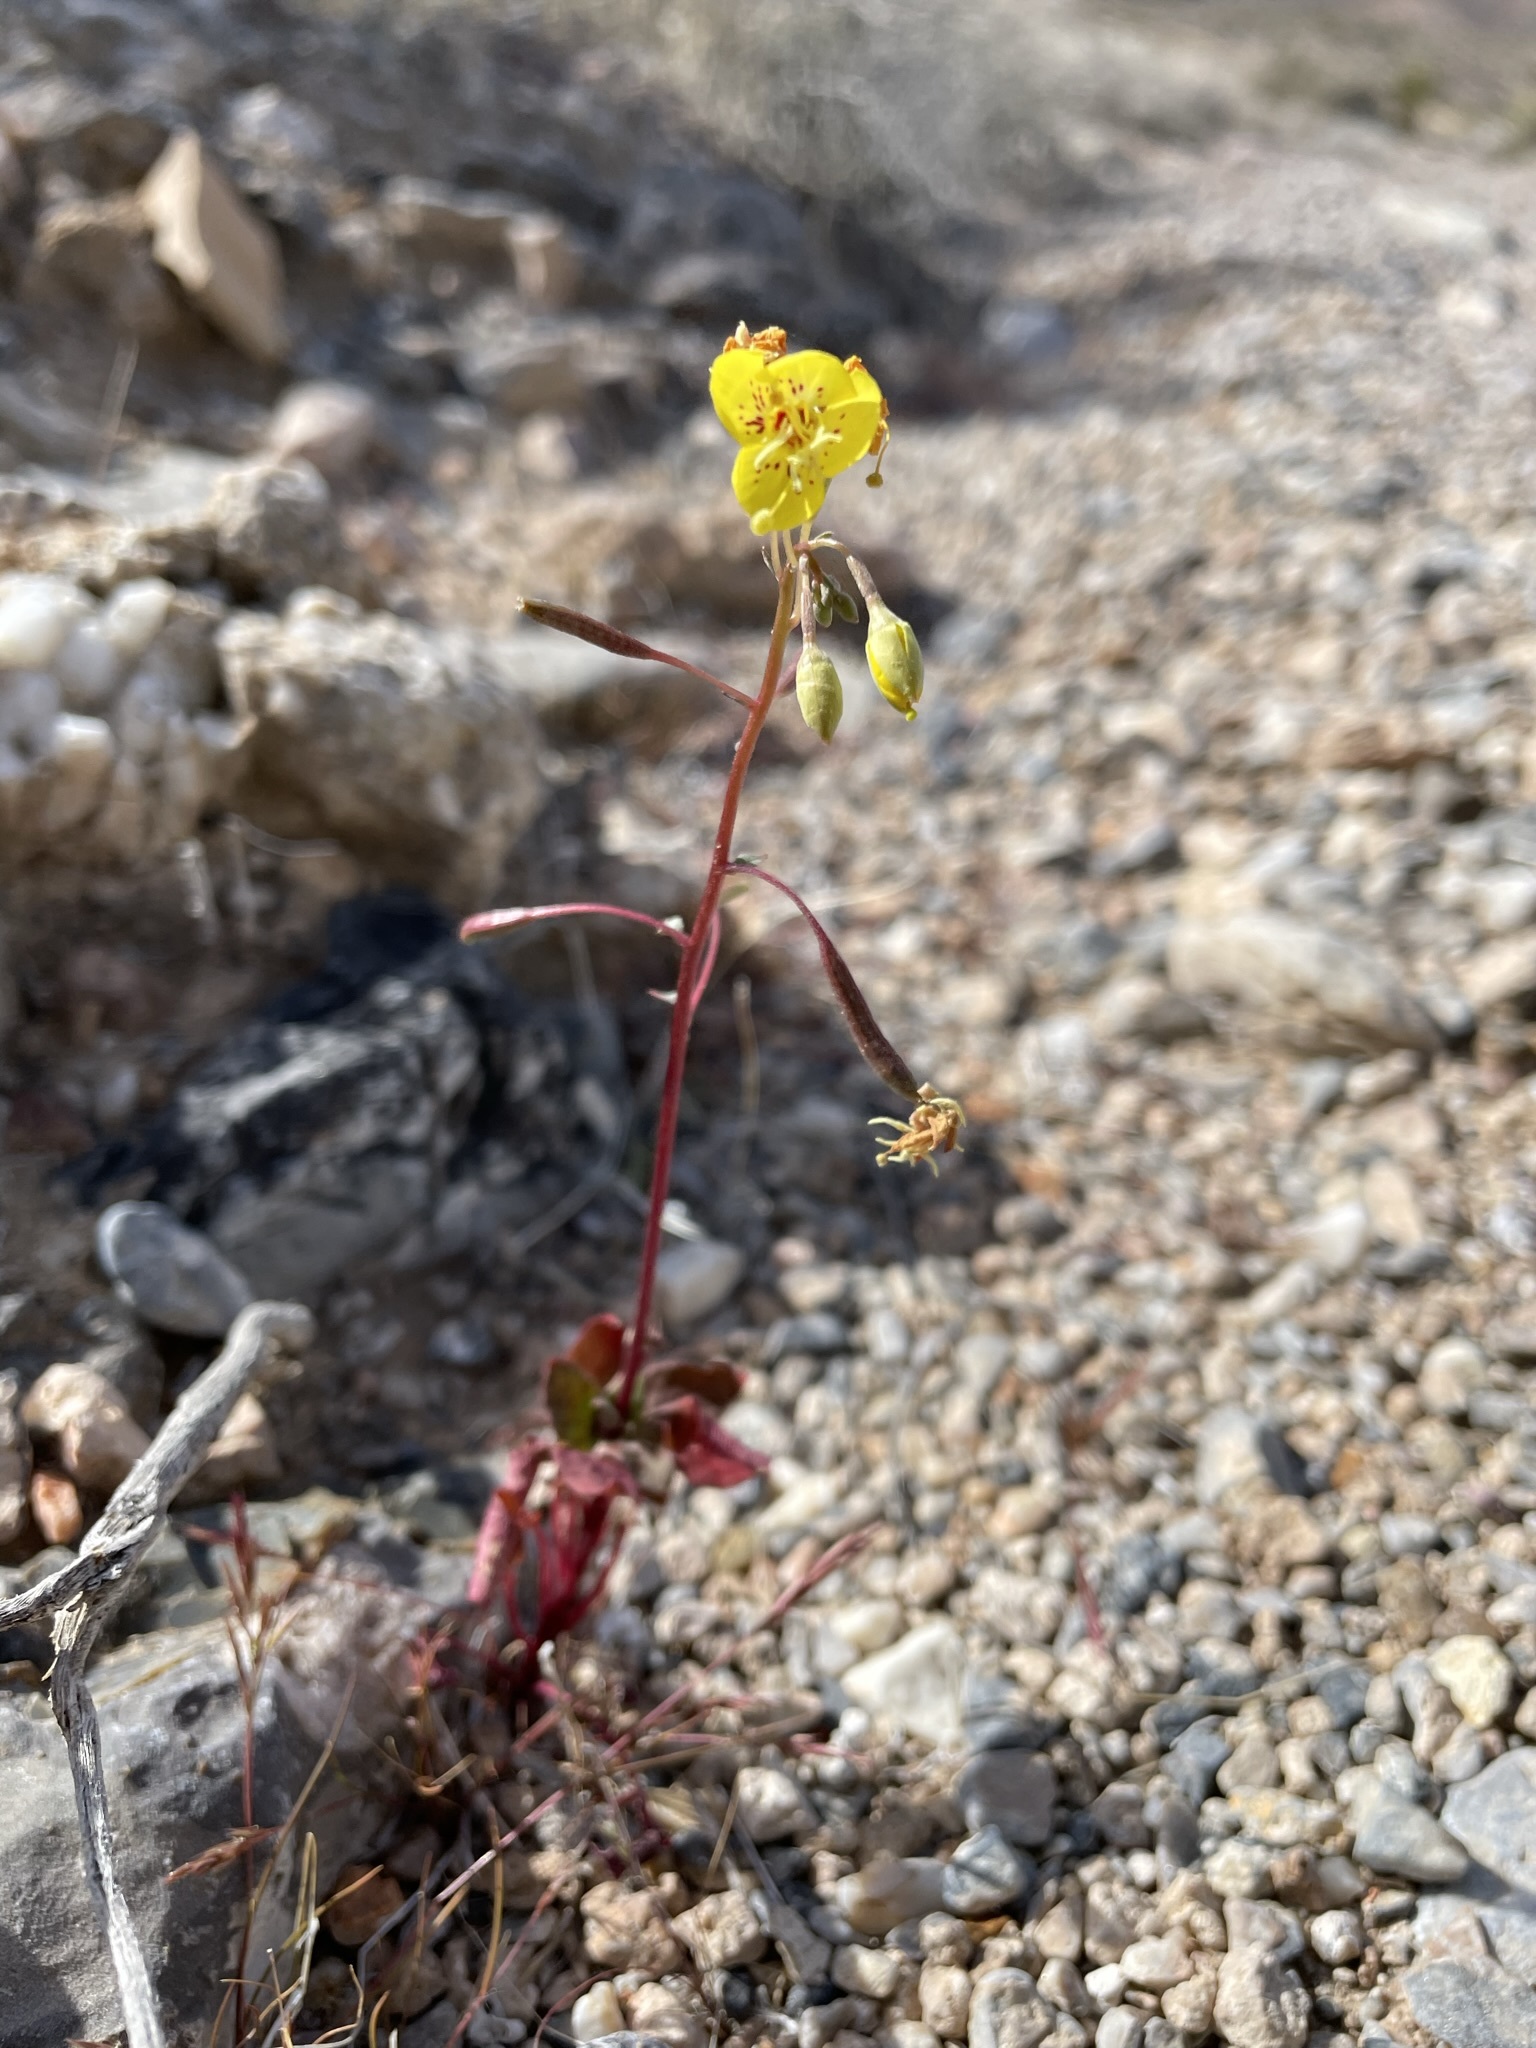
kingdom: Plantae
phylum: Tracheophyta
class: Magnoliopsida
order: Myrtales
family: Onagraceae
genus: Chylismia
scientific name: Chylismia munzii
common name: Death valley suncup
